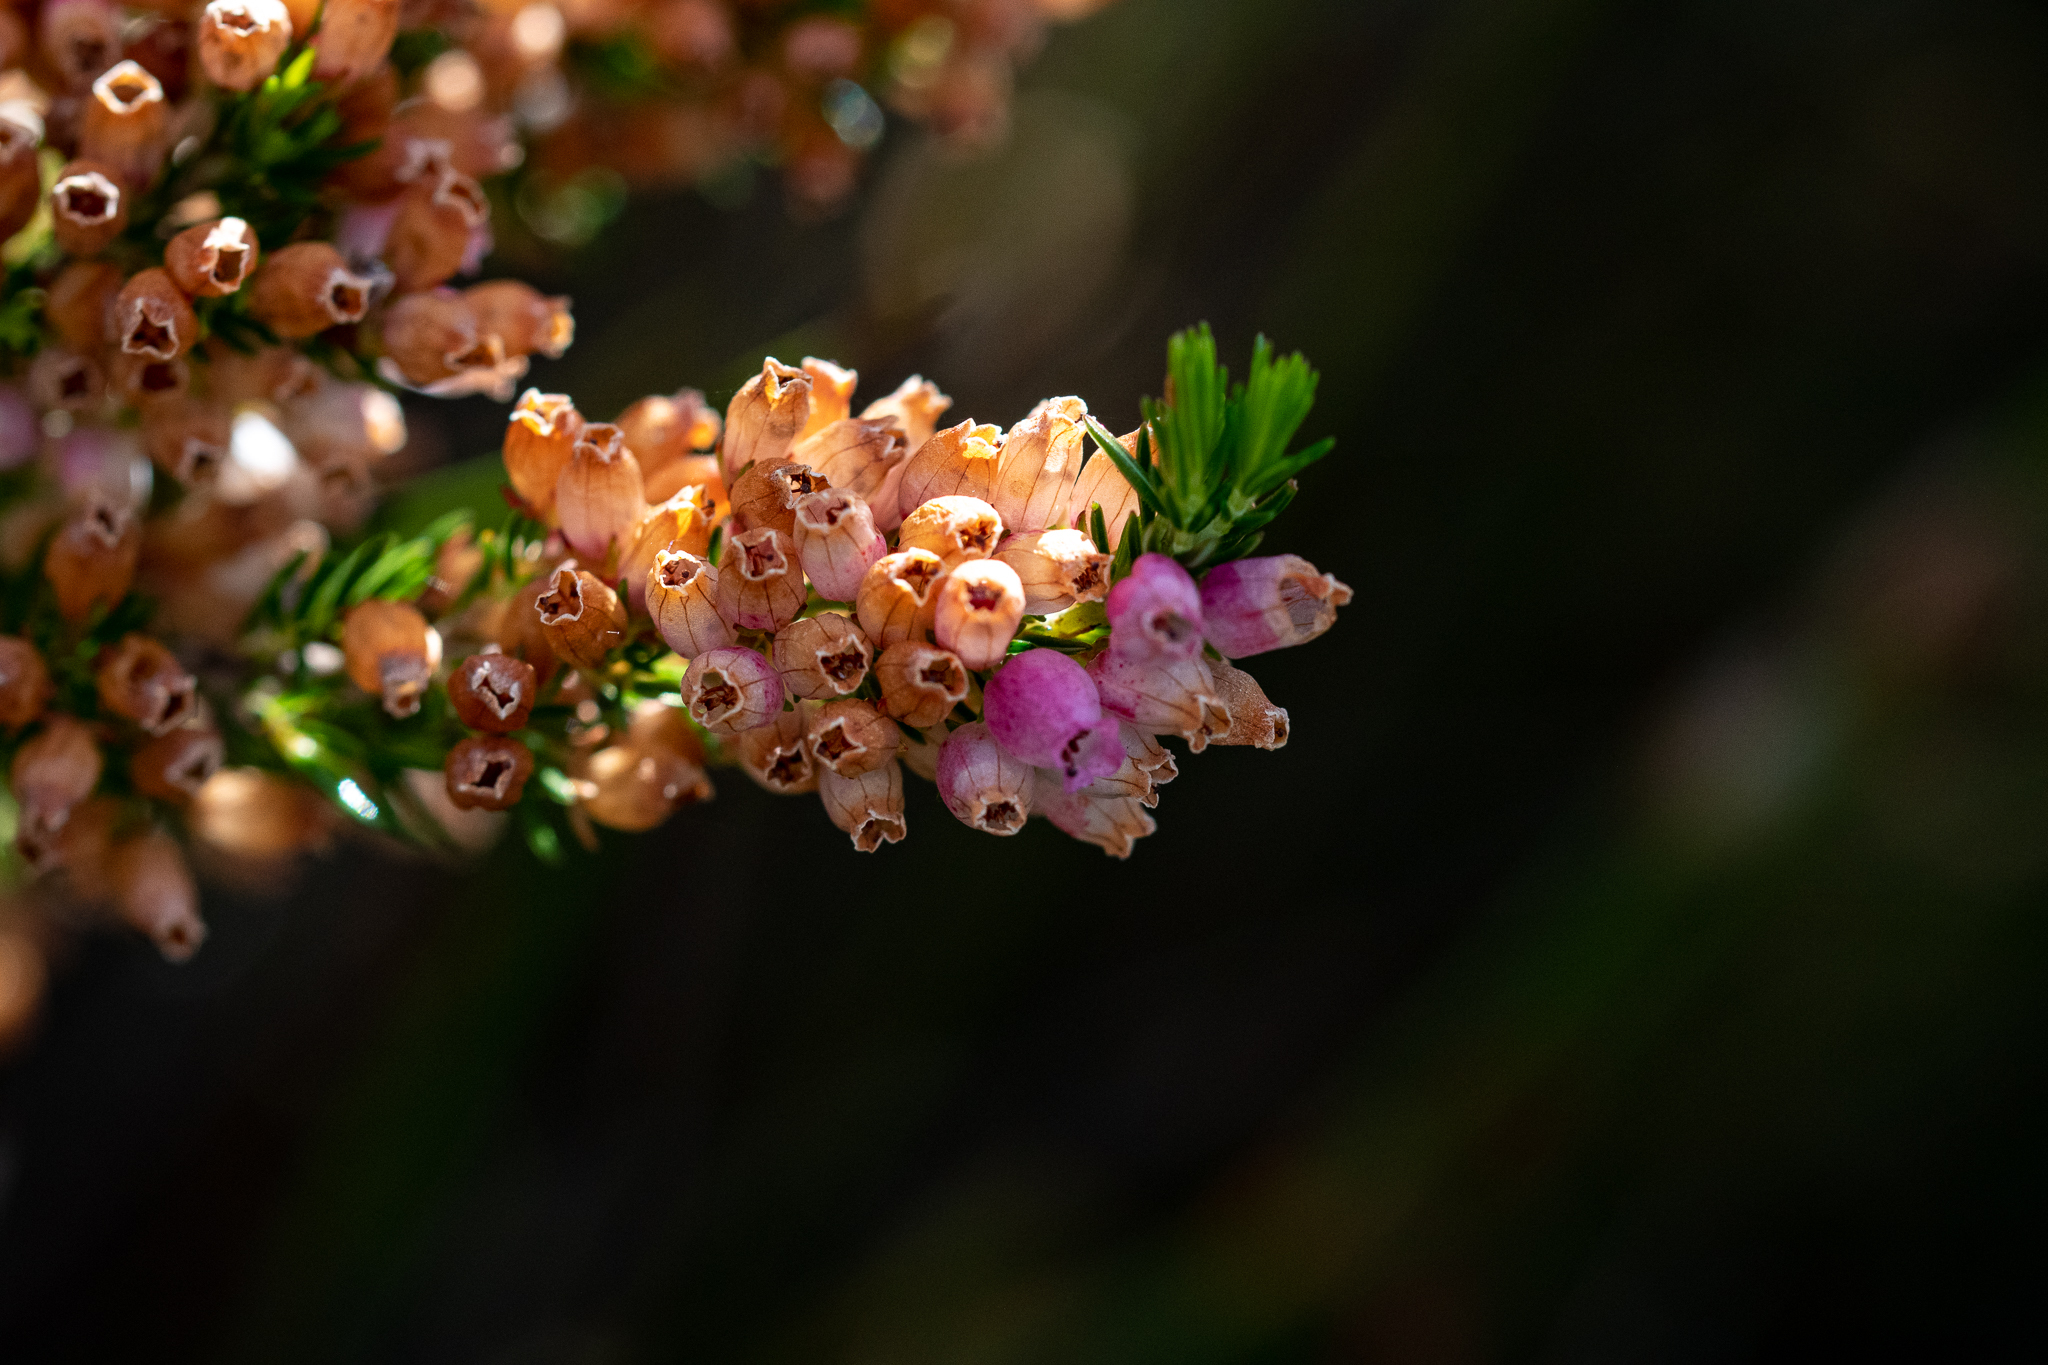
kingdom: Plantae
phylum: Tracheophyta
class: Magnoliopsida
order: Ericales
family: Ericaceae
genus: Erica
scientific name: Erica tenella
